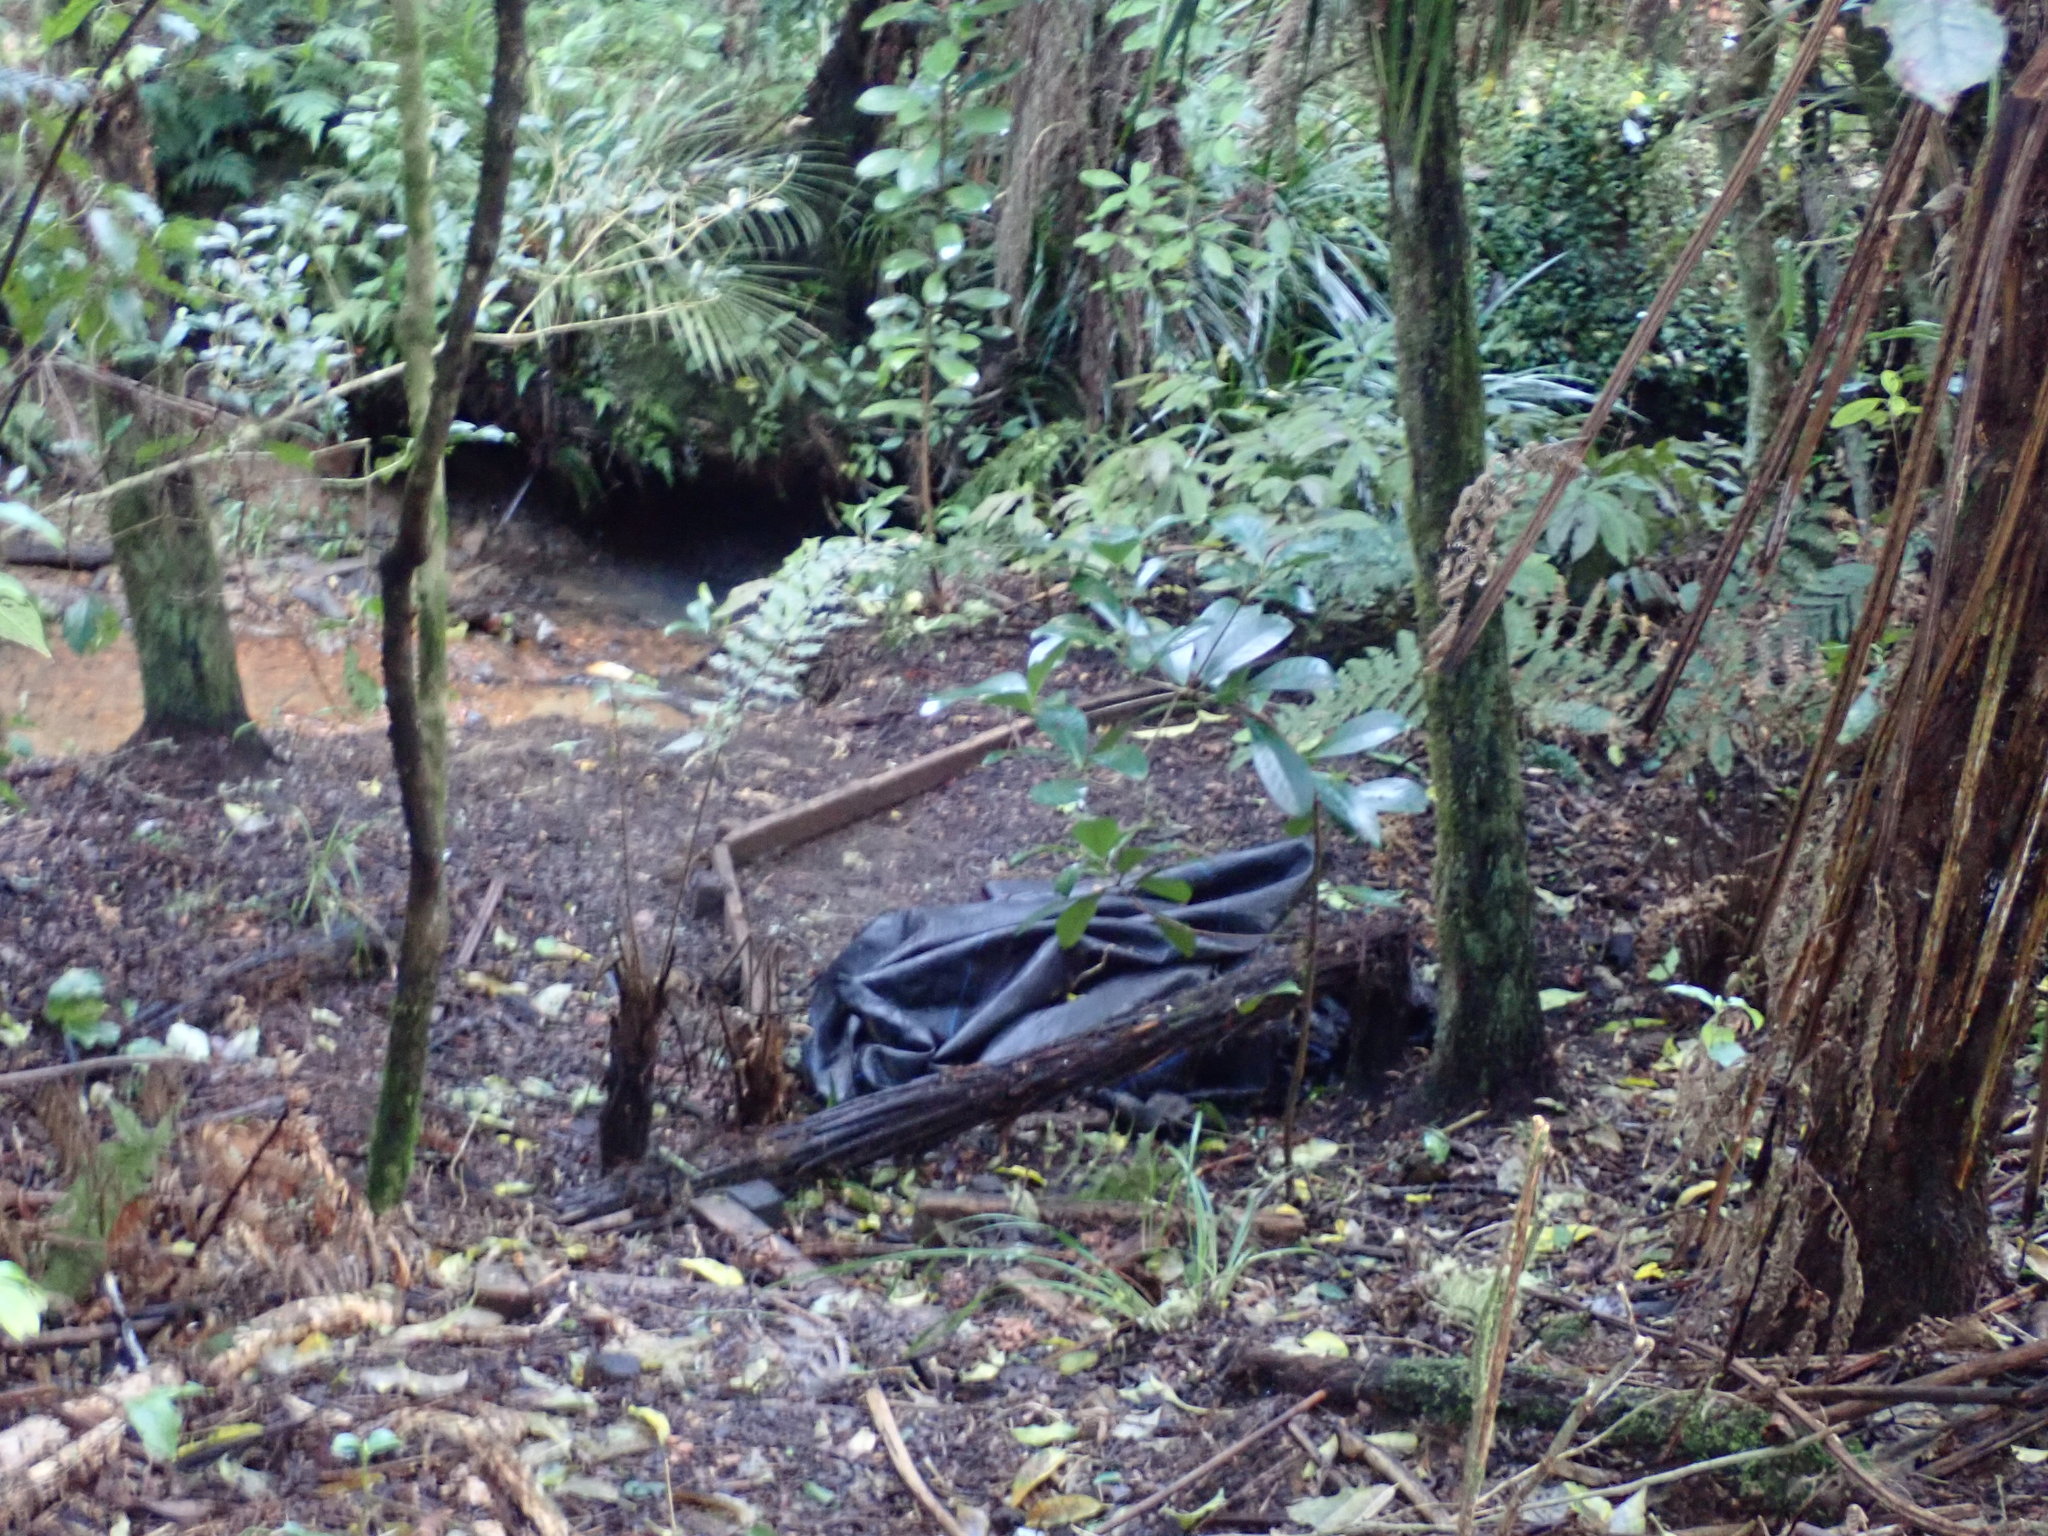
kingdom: Plantae
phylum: Tracheophyta
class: Liliopsida
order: Commelinales
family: Commelinaceae
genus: Tradescantia
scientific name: Tradescantia fluminensis
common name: Wandering-jew
